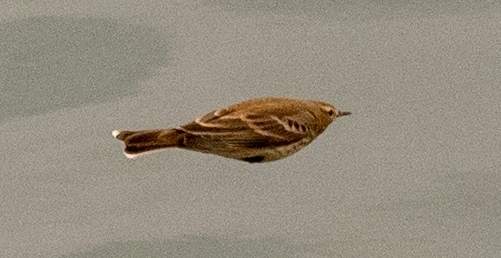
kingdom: Animalia
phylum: Chordata
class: Aves
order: Passeriformes
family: Motacillidae
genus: Anthus
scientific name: Anthus spinoletta
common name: Water pipit
